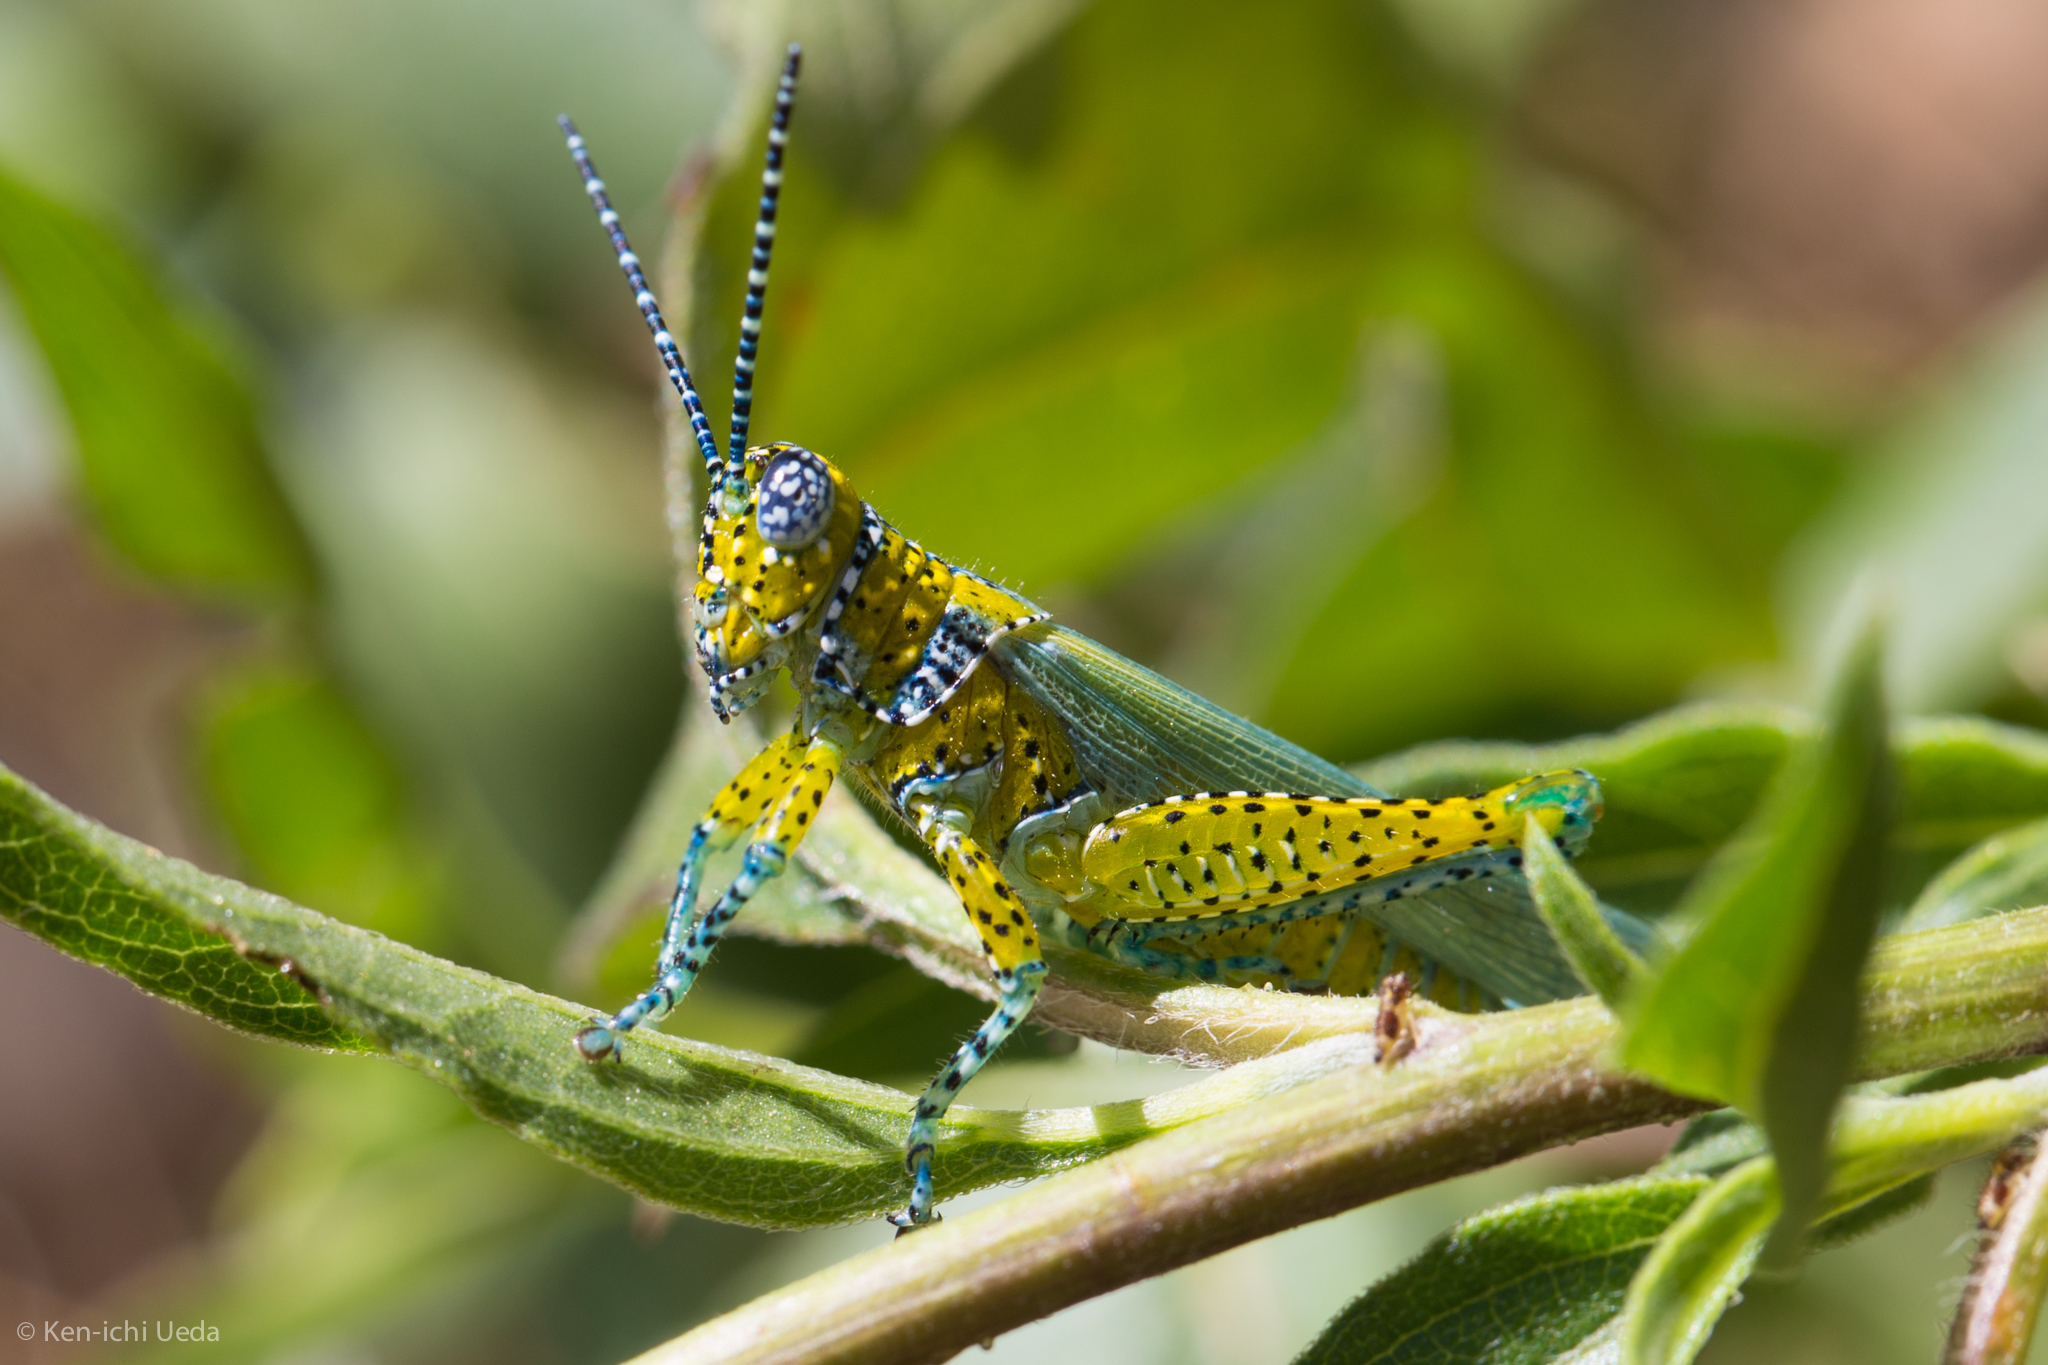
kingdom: Animalia
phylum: Arthropoda
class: Insecta
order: Orthoptera
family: Acrididae
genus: Poecilotettix
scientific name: Poecilotettix pantherinus
